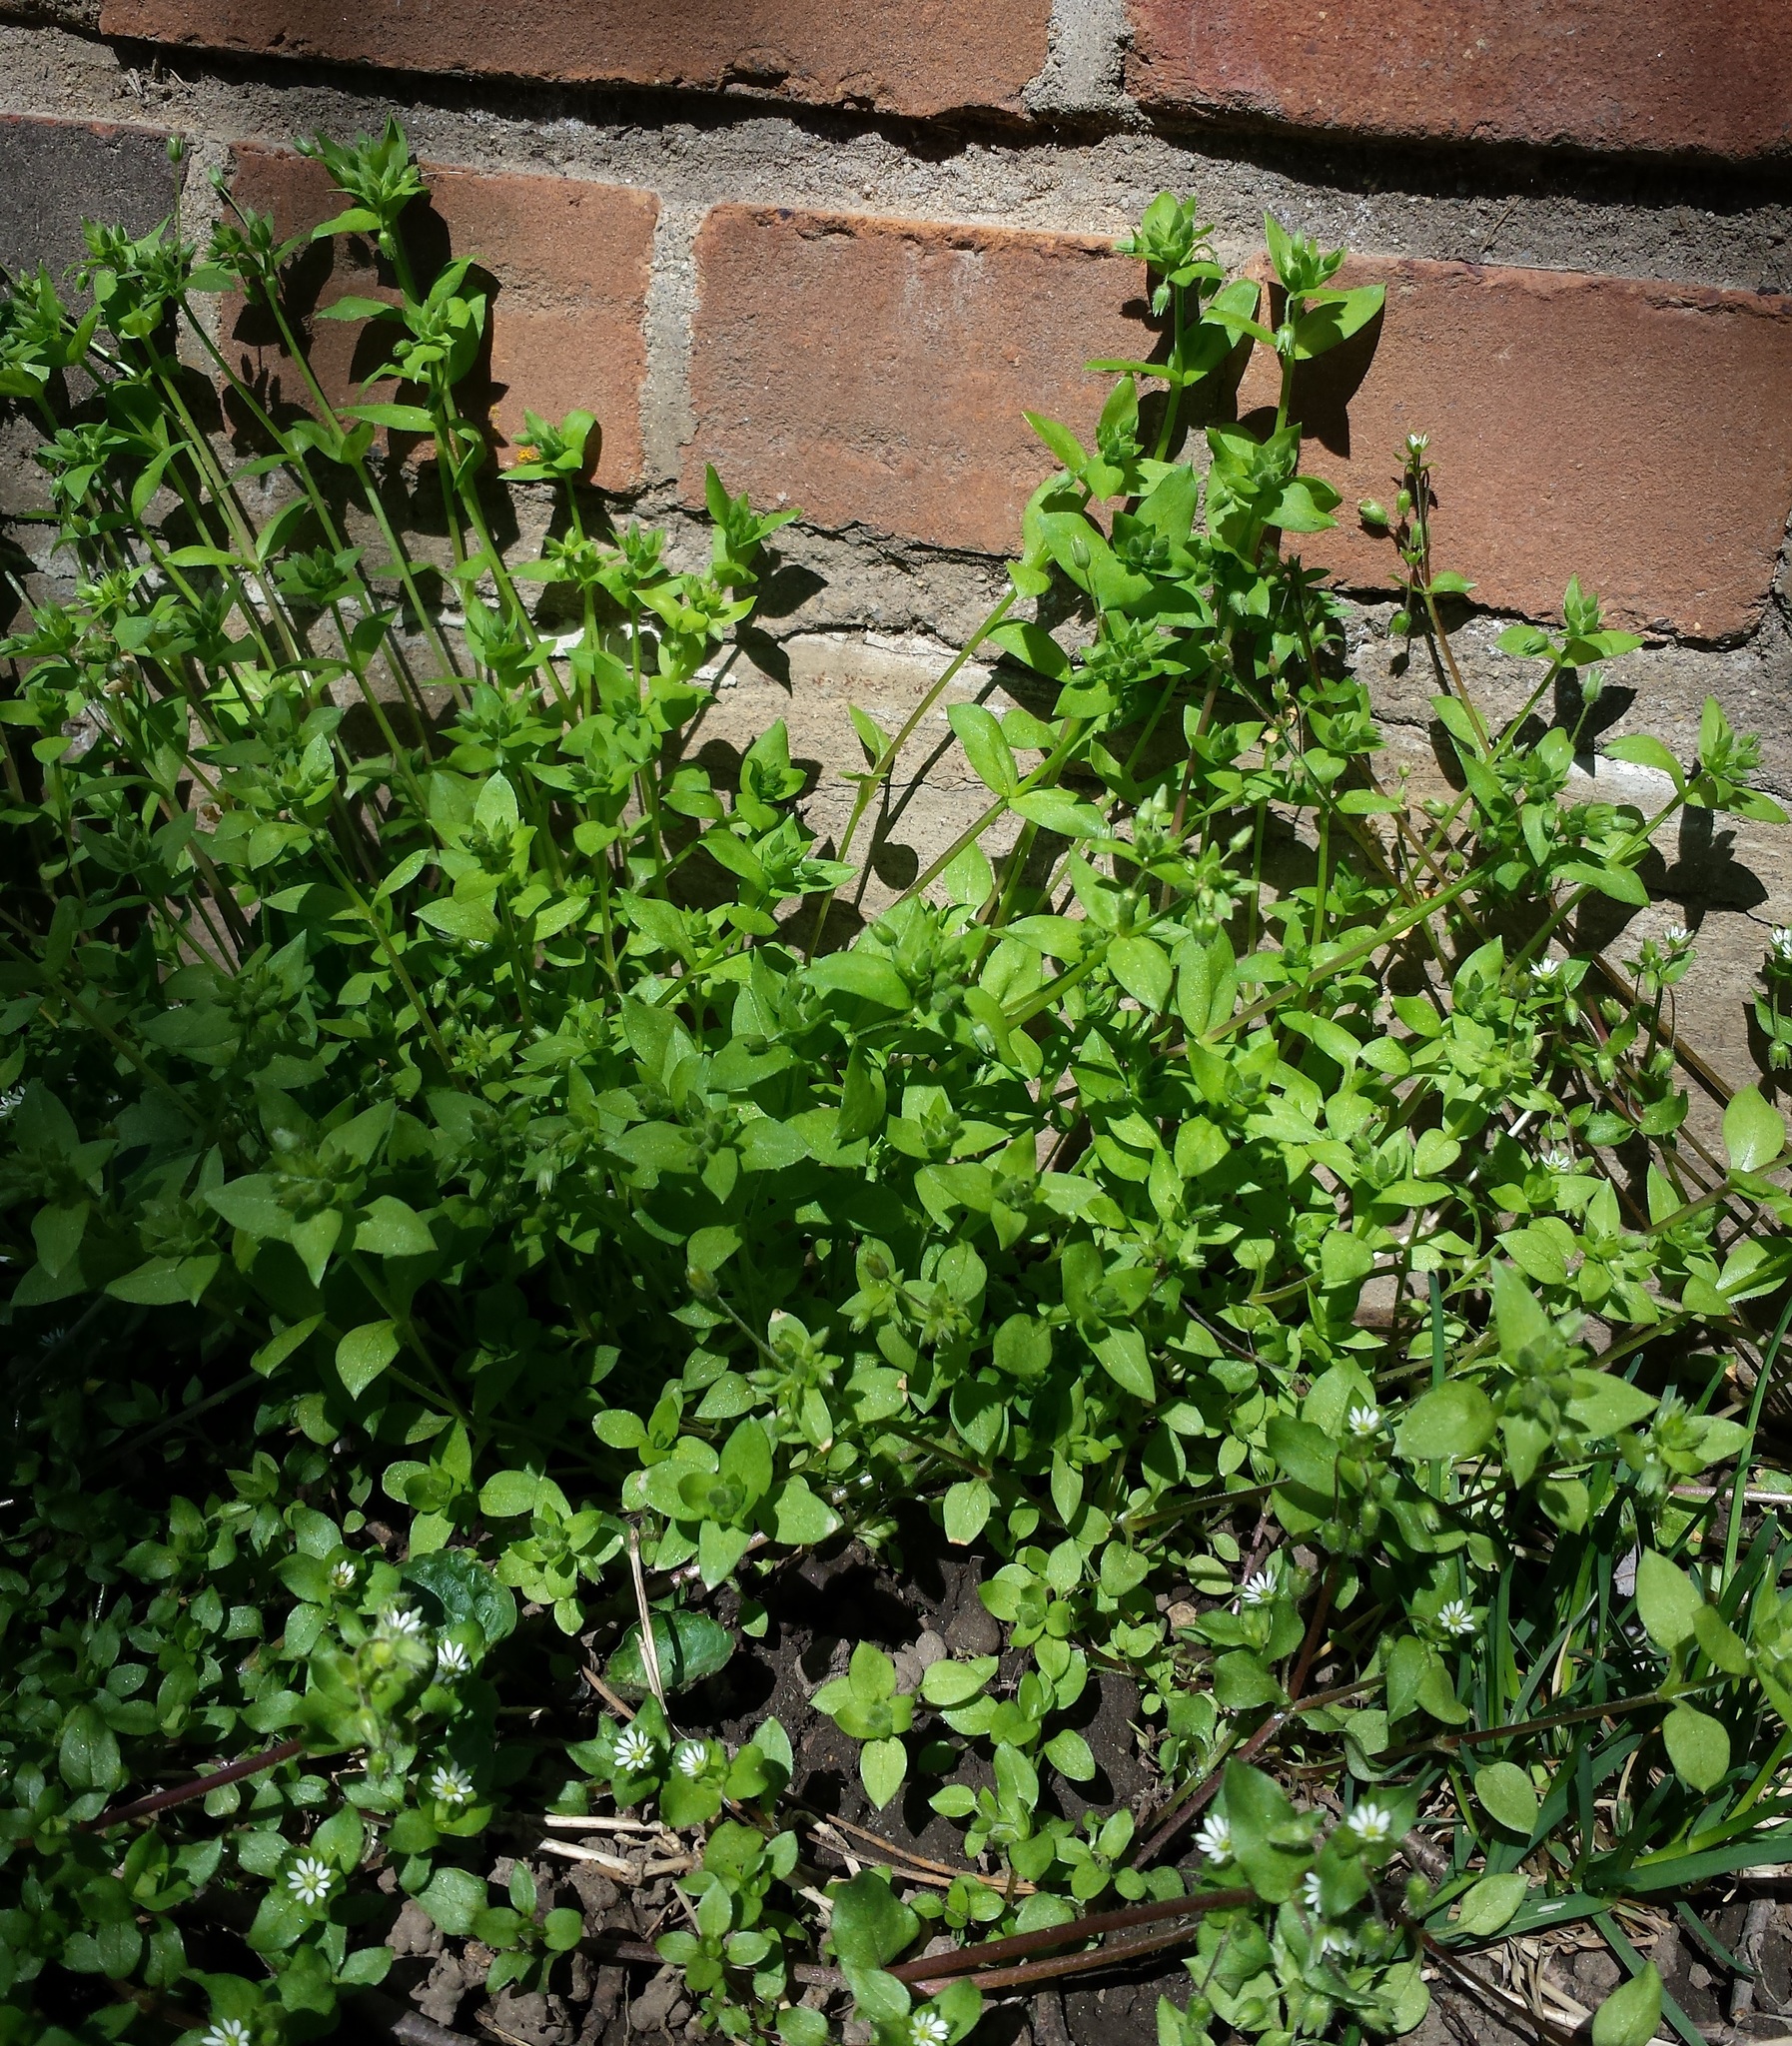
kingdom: Plantae
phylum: Tracheophyta
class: Magnoliopsida
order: Caryophyllales
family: Caryophyllaceae
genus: Stellaria
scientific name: Stellaria media
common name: Common chickweed
